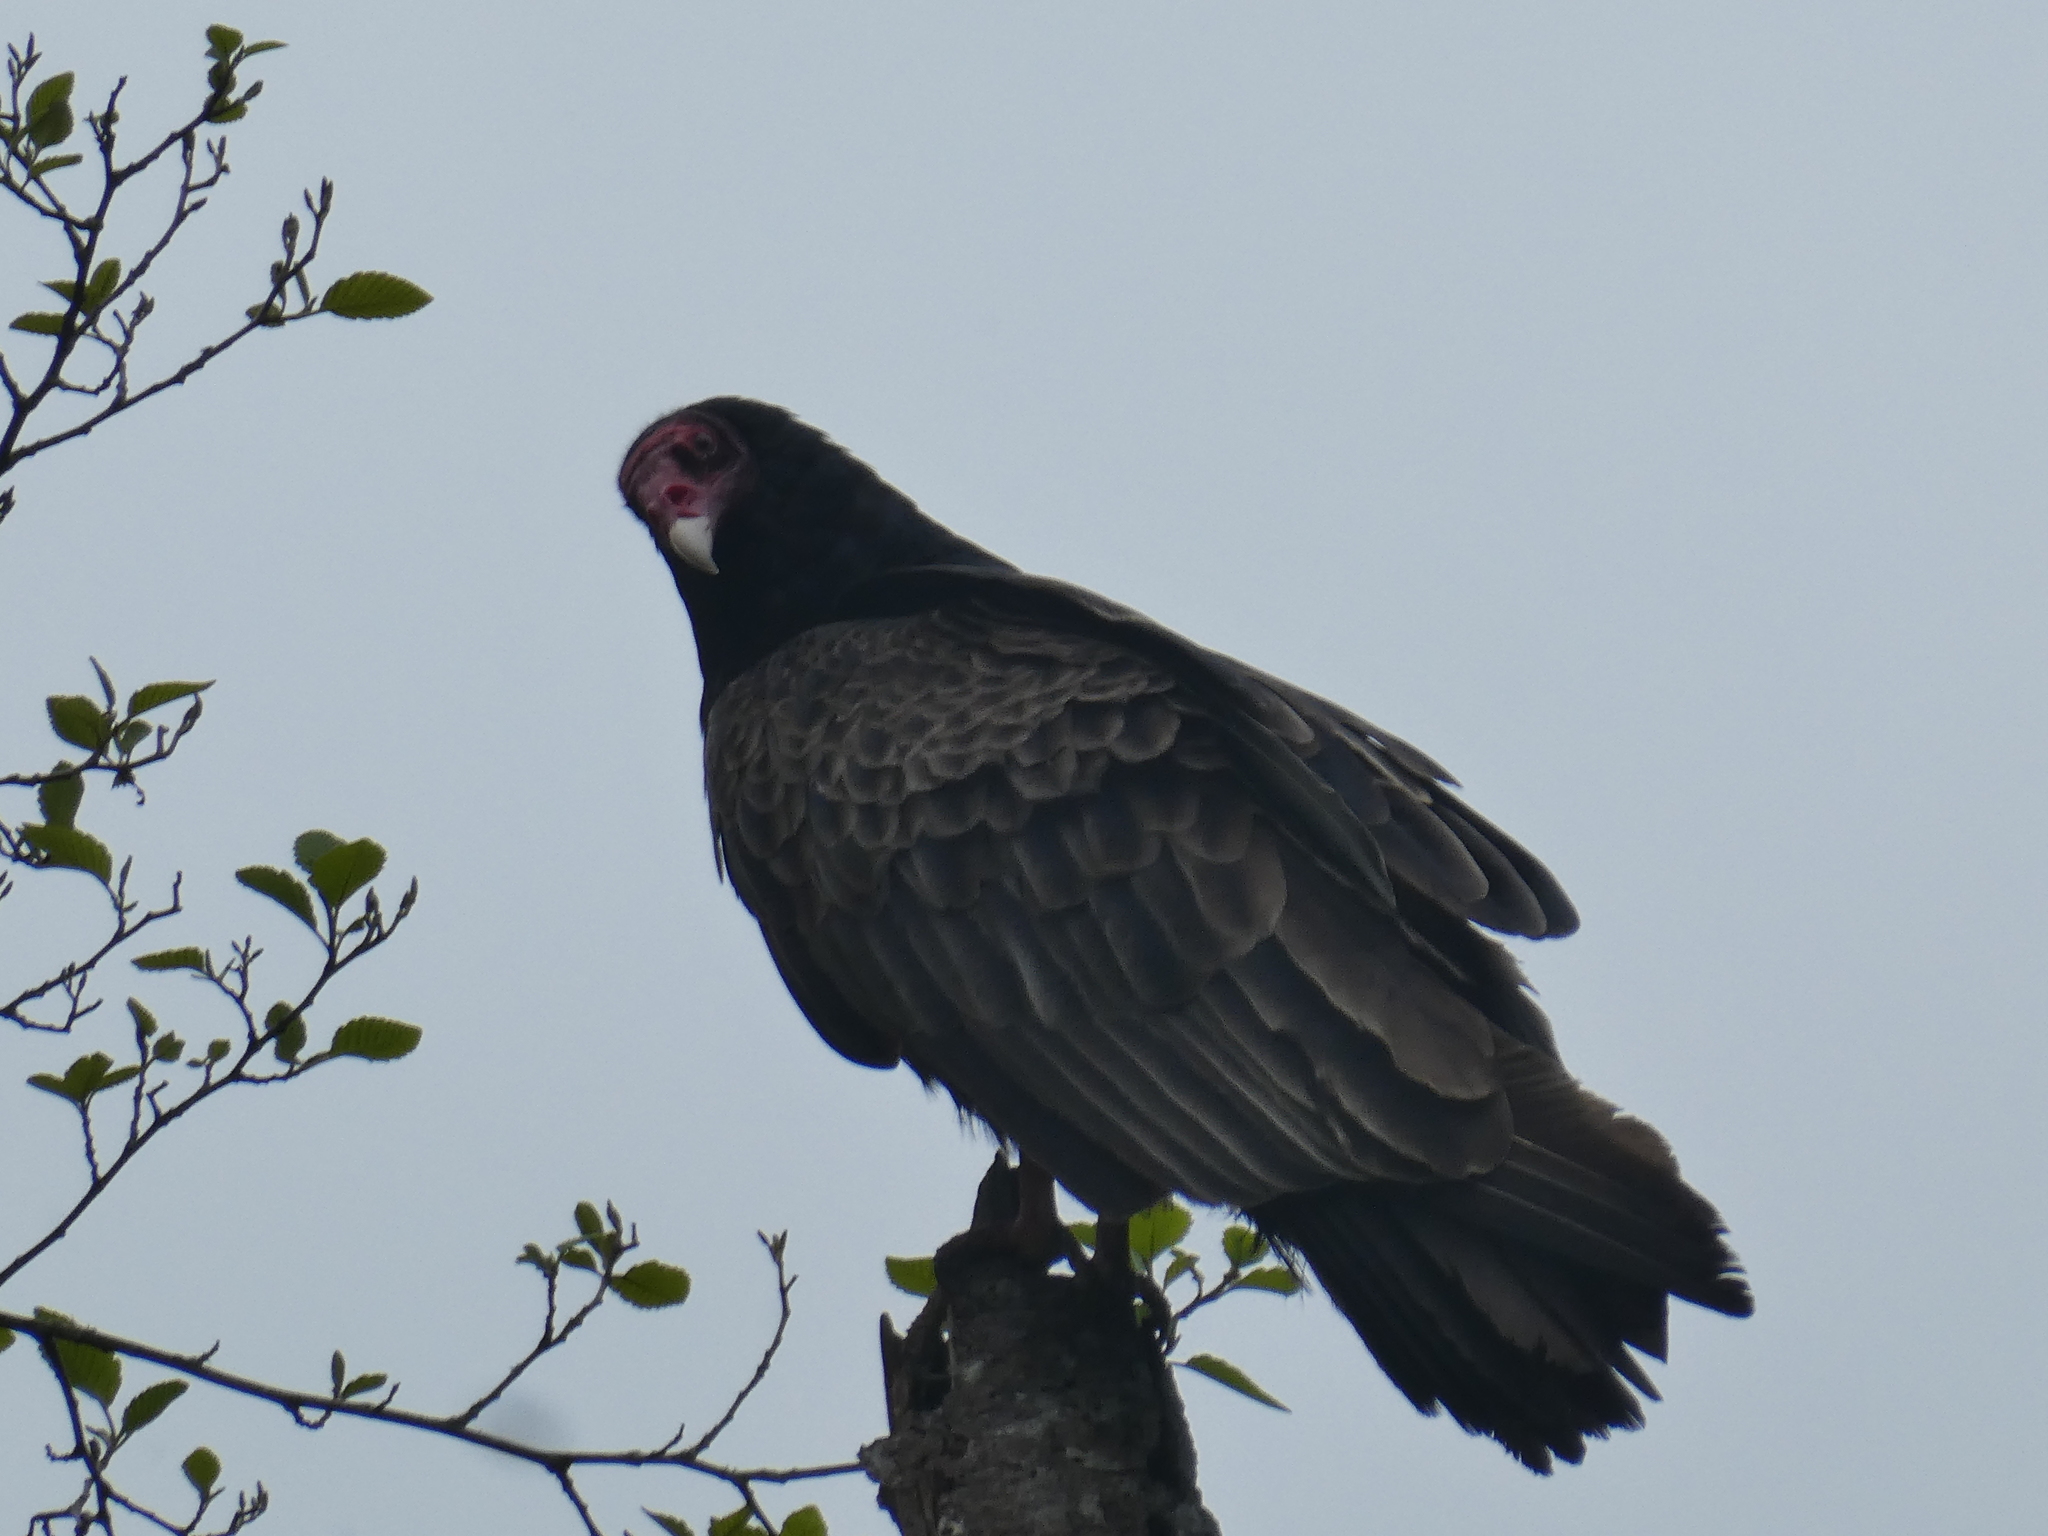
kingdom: Animalia
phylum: Chordata
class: Aves
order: Accipitriformes
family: Cathartidae
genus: Cathartes
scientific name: Cathartes aura
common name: Turkey vulture
